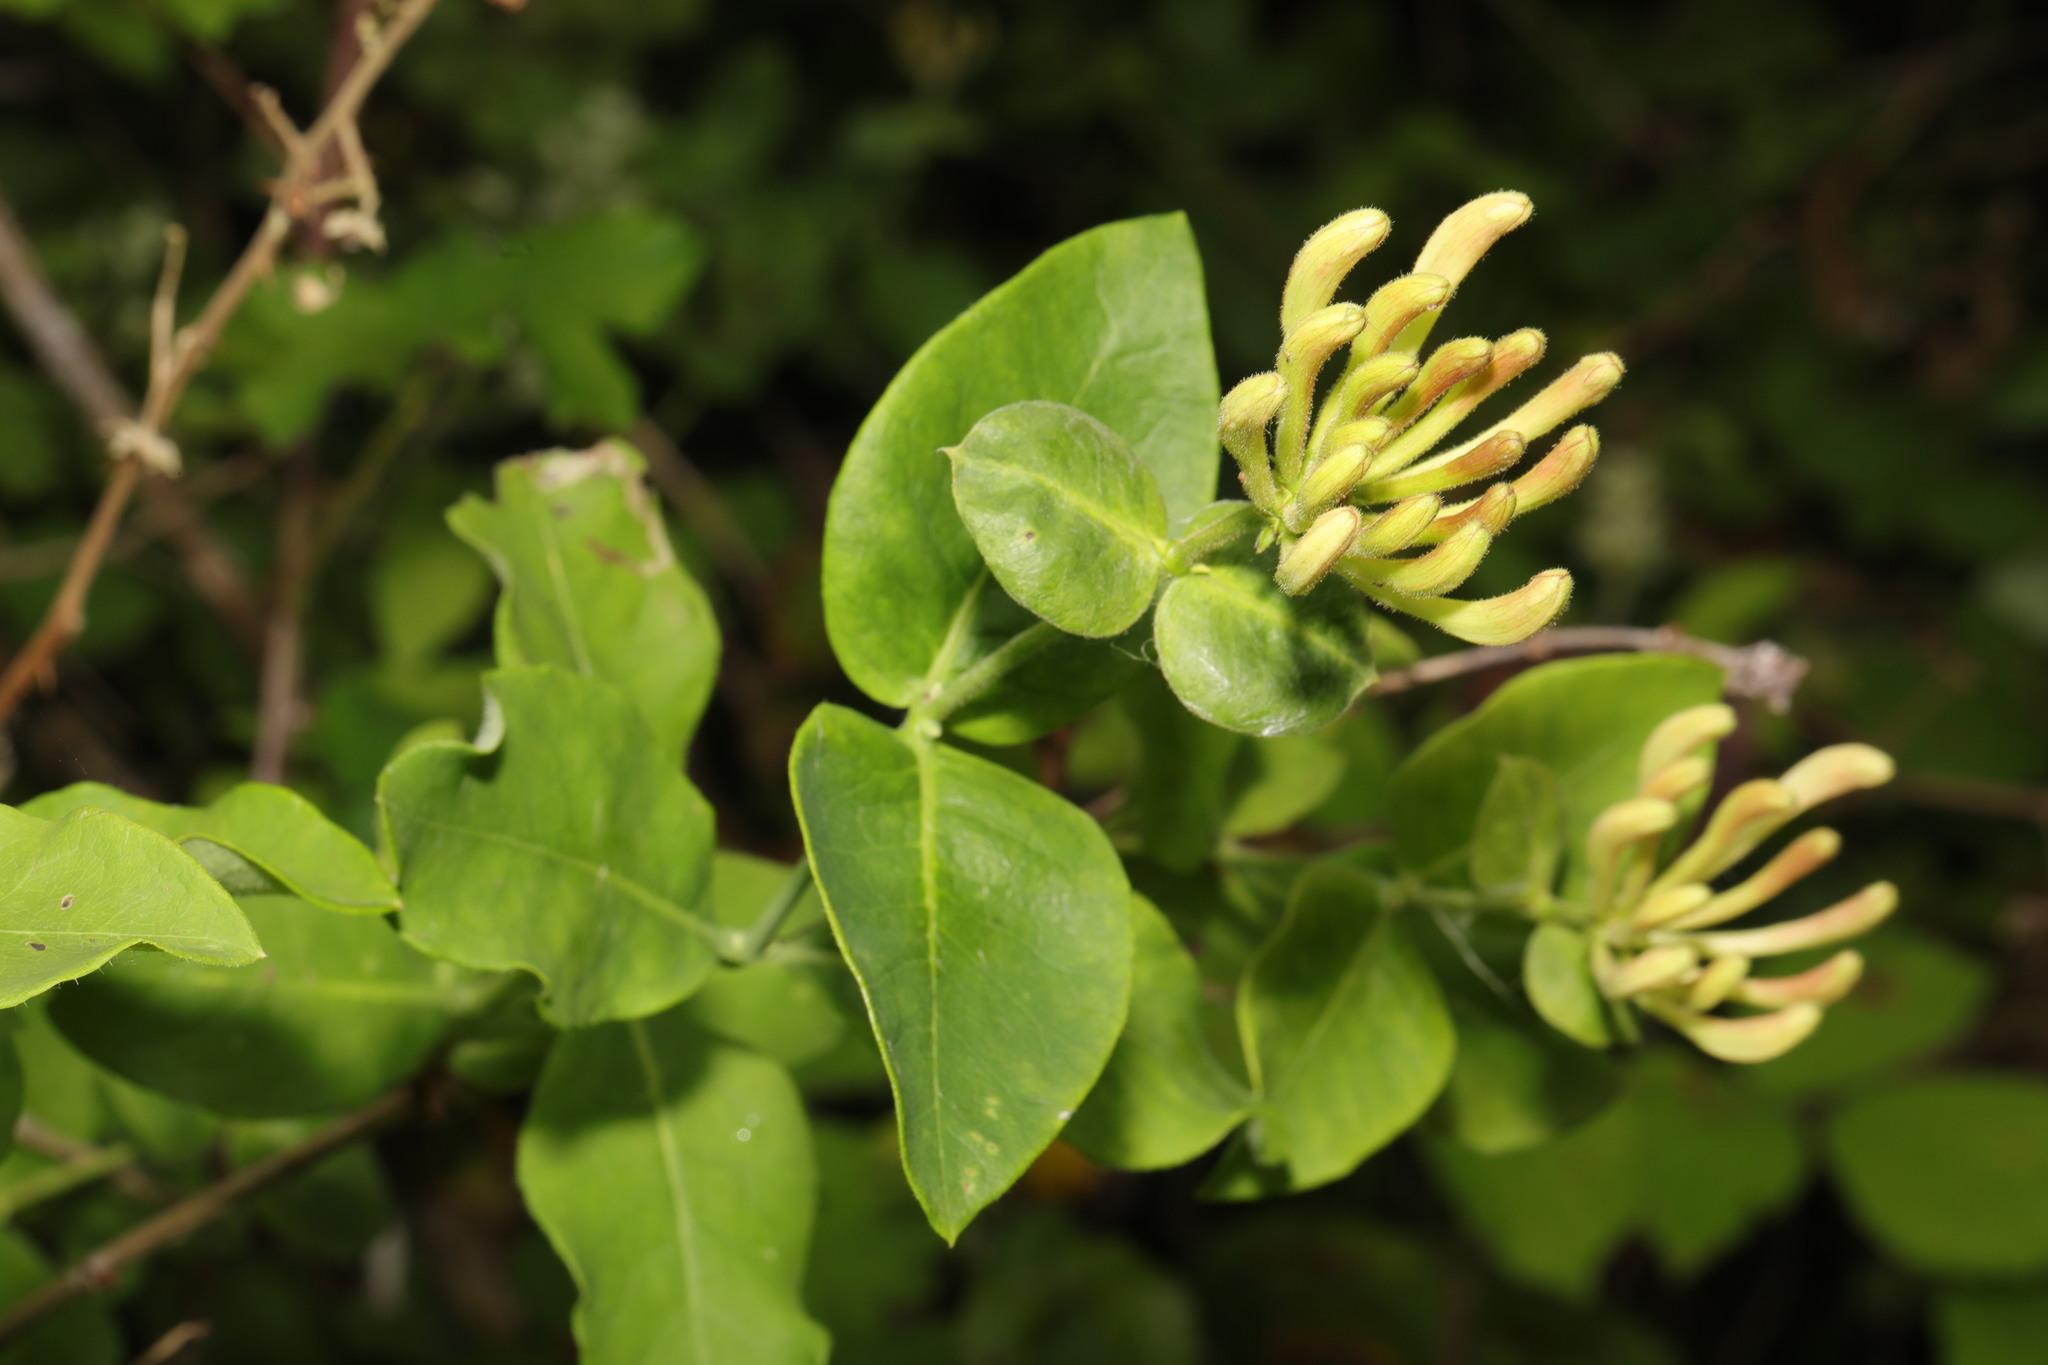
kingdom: Plantae
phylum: Tracheophyta
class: Magnoliopsida
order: Dipsacales
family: Caprifoliaceae
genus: Lonicera
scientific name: Lonicera periclymenum
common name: European honeysuckle
